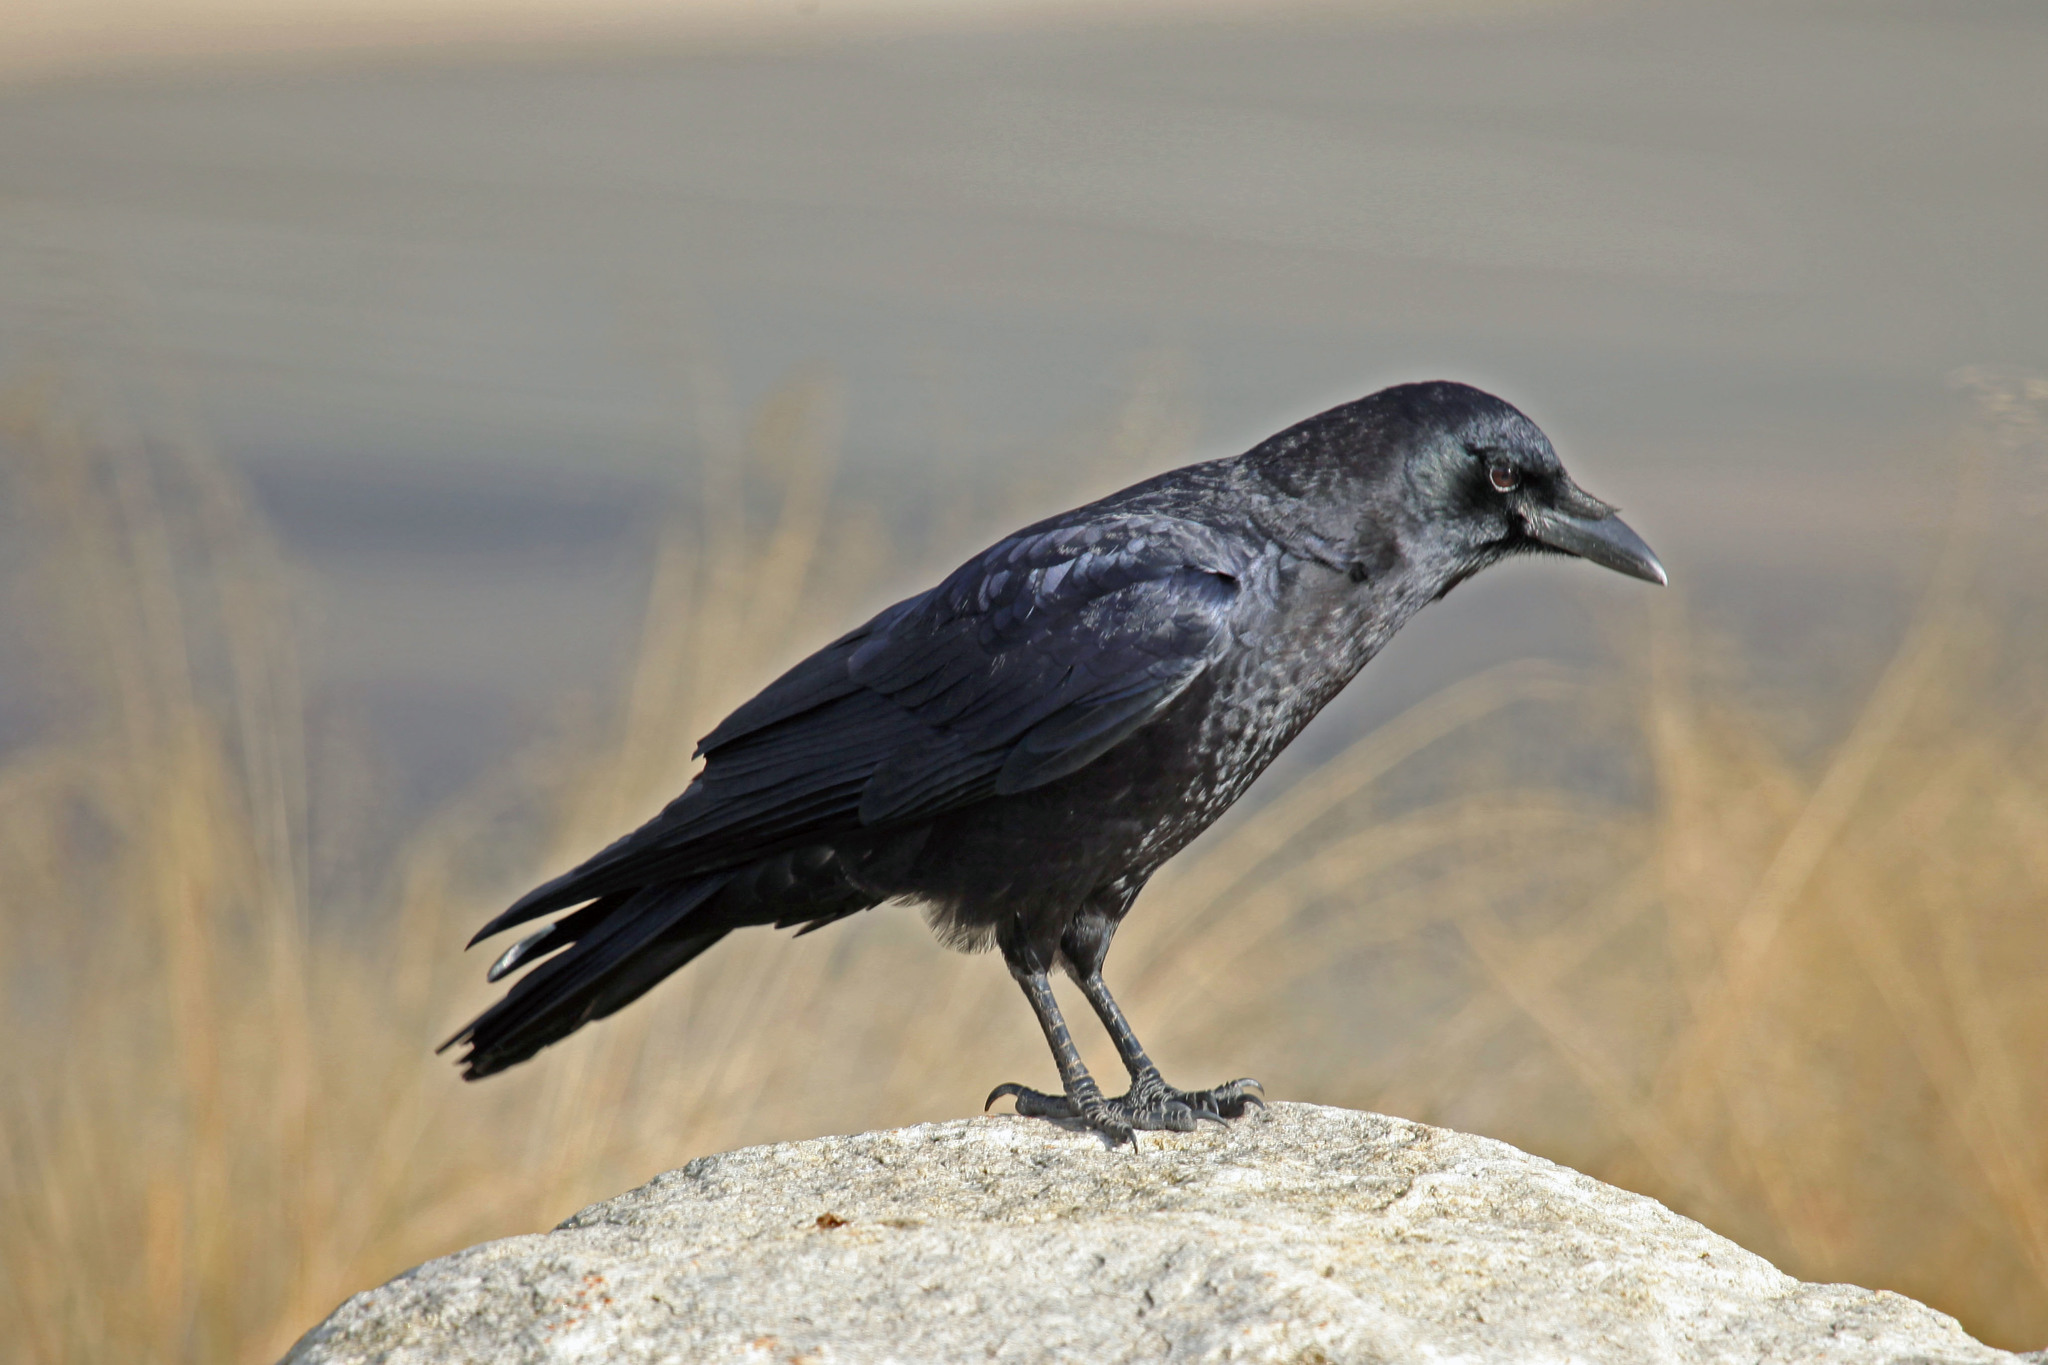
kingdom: Animalia
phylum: Chordata
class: Aves
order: Passeriformes
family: Corvidae
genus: Corvus
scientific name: Corvus brachyrhynchos
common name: American crow
